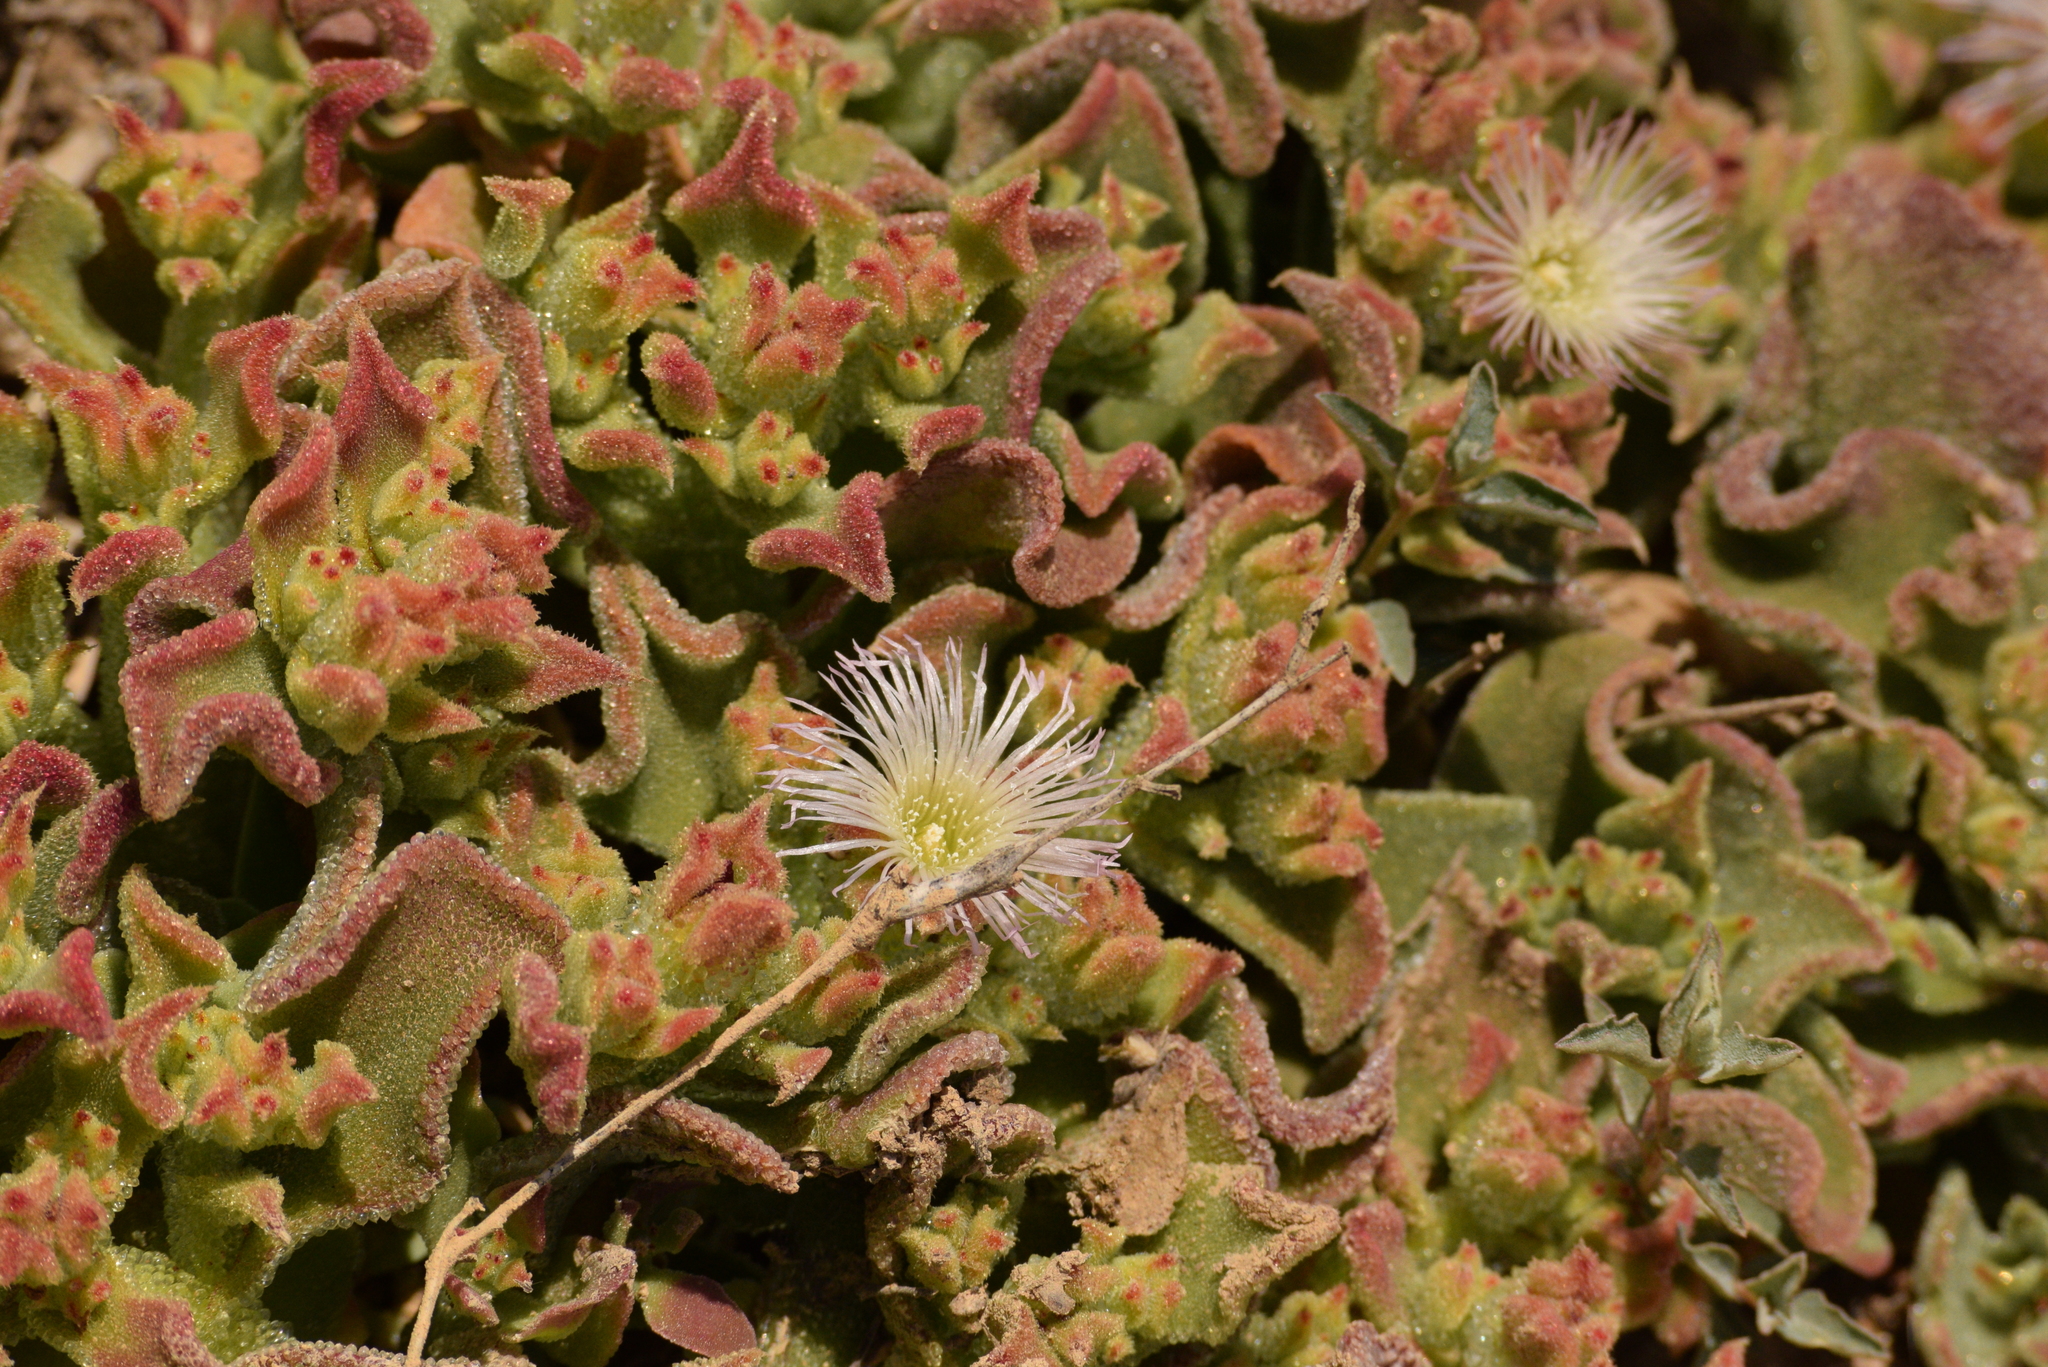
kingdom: Plantae
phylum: Tracheophyta
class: Magnoliopsida
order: Caryophyllales
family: Aizoaceae
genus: Mesembryanthemum
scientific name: Mesembryanthemum crystallinum
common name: Common iceplant
